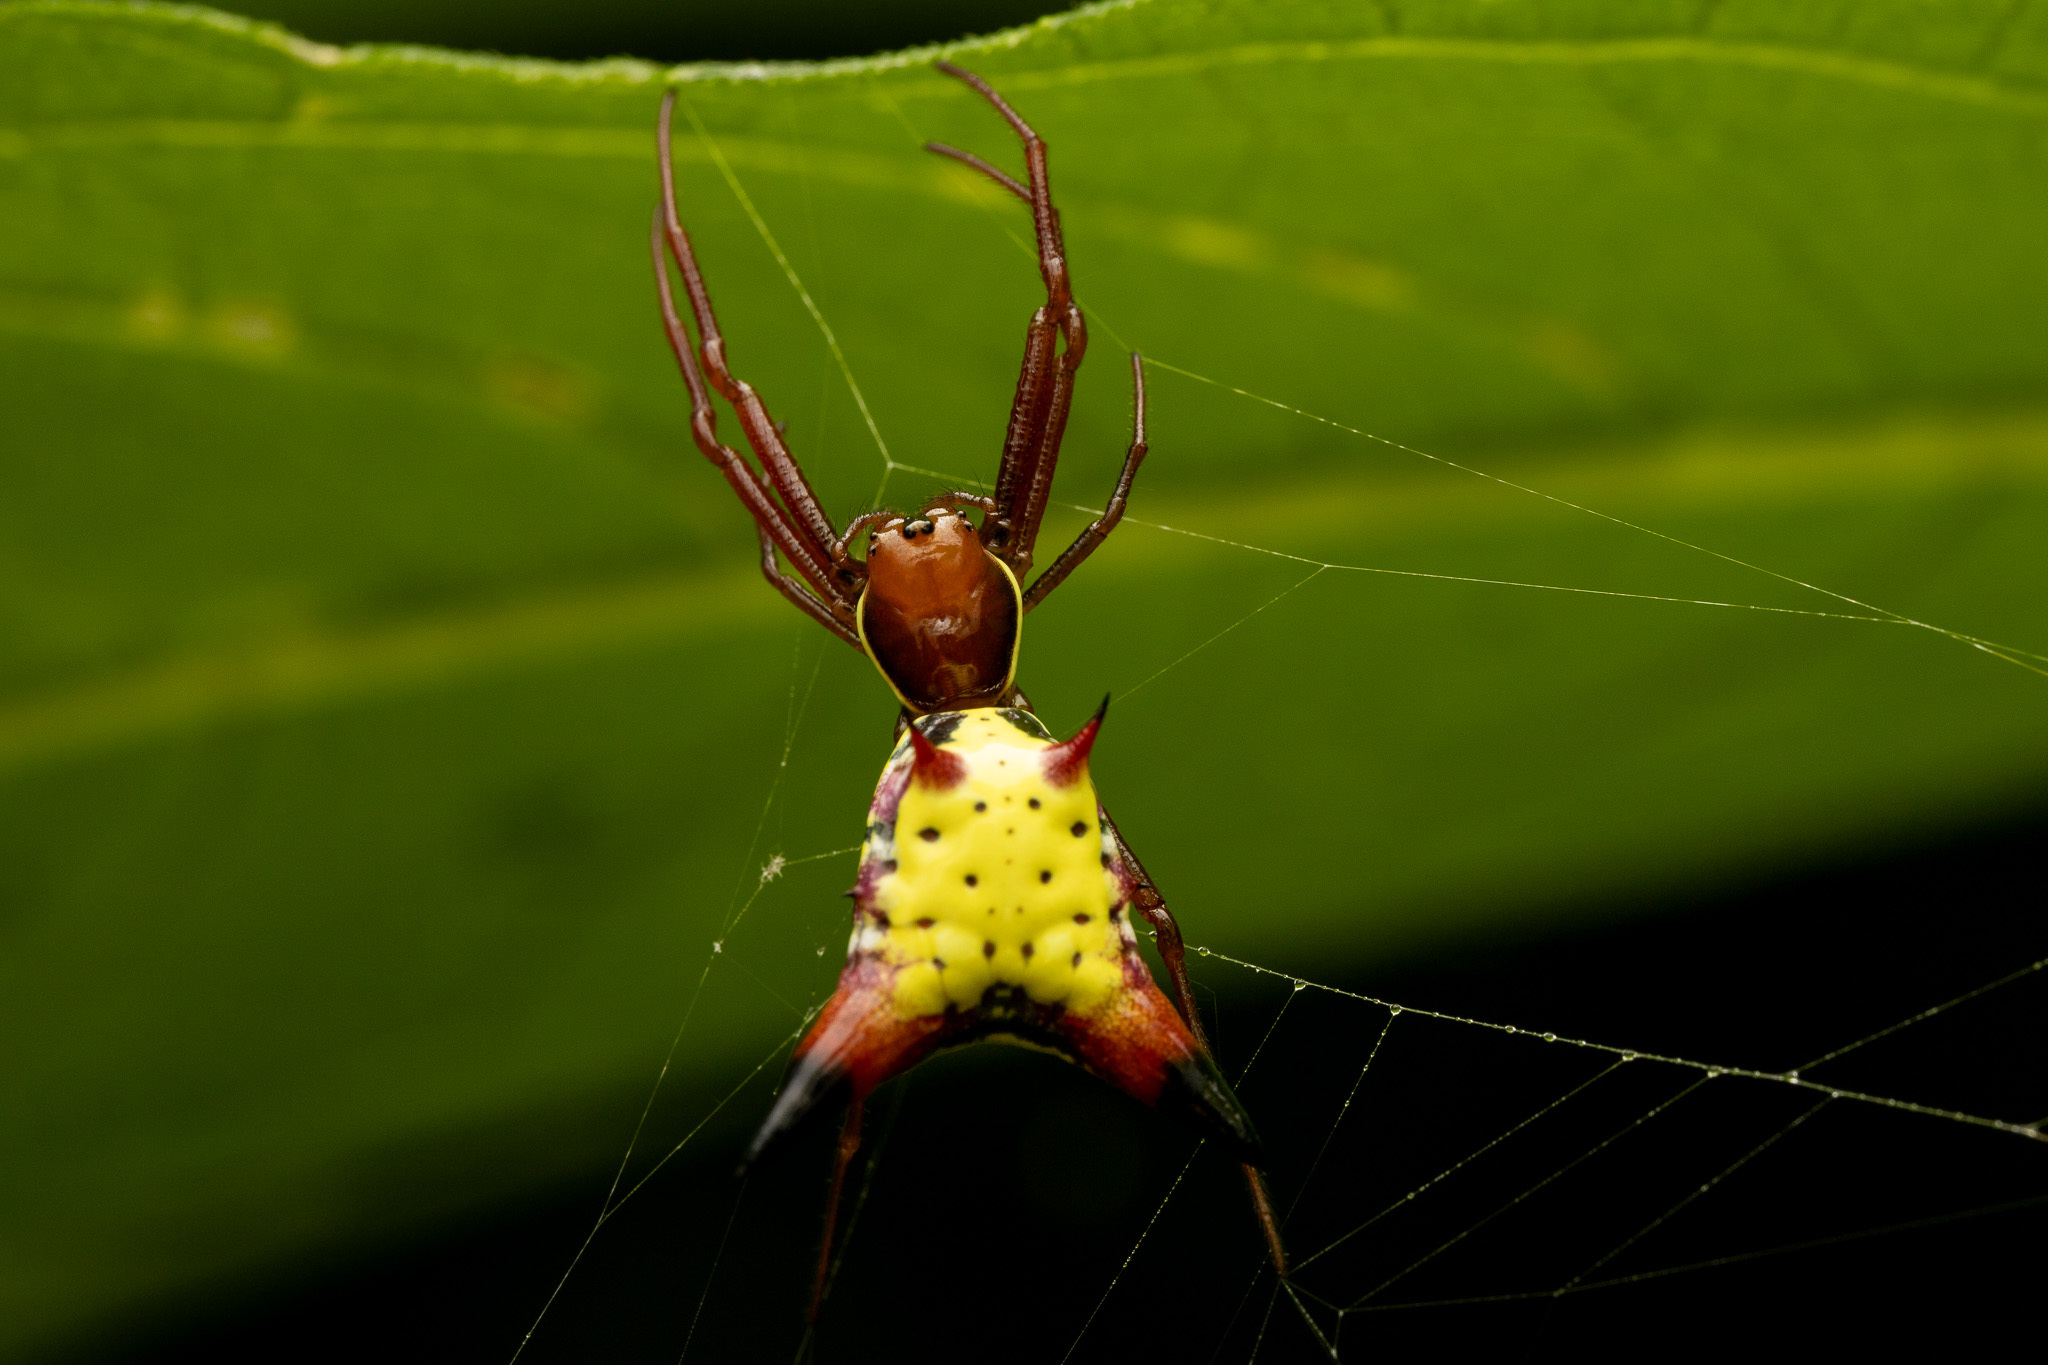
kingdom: Animalia
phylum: Arthropoda
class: Arachnida
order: Araneae
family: Araneidae
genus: Micrathena
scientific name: Micrathena sagittata
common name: Orb weavers
